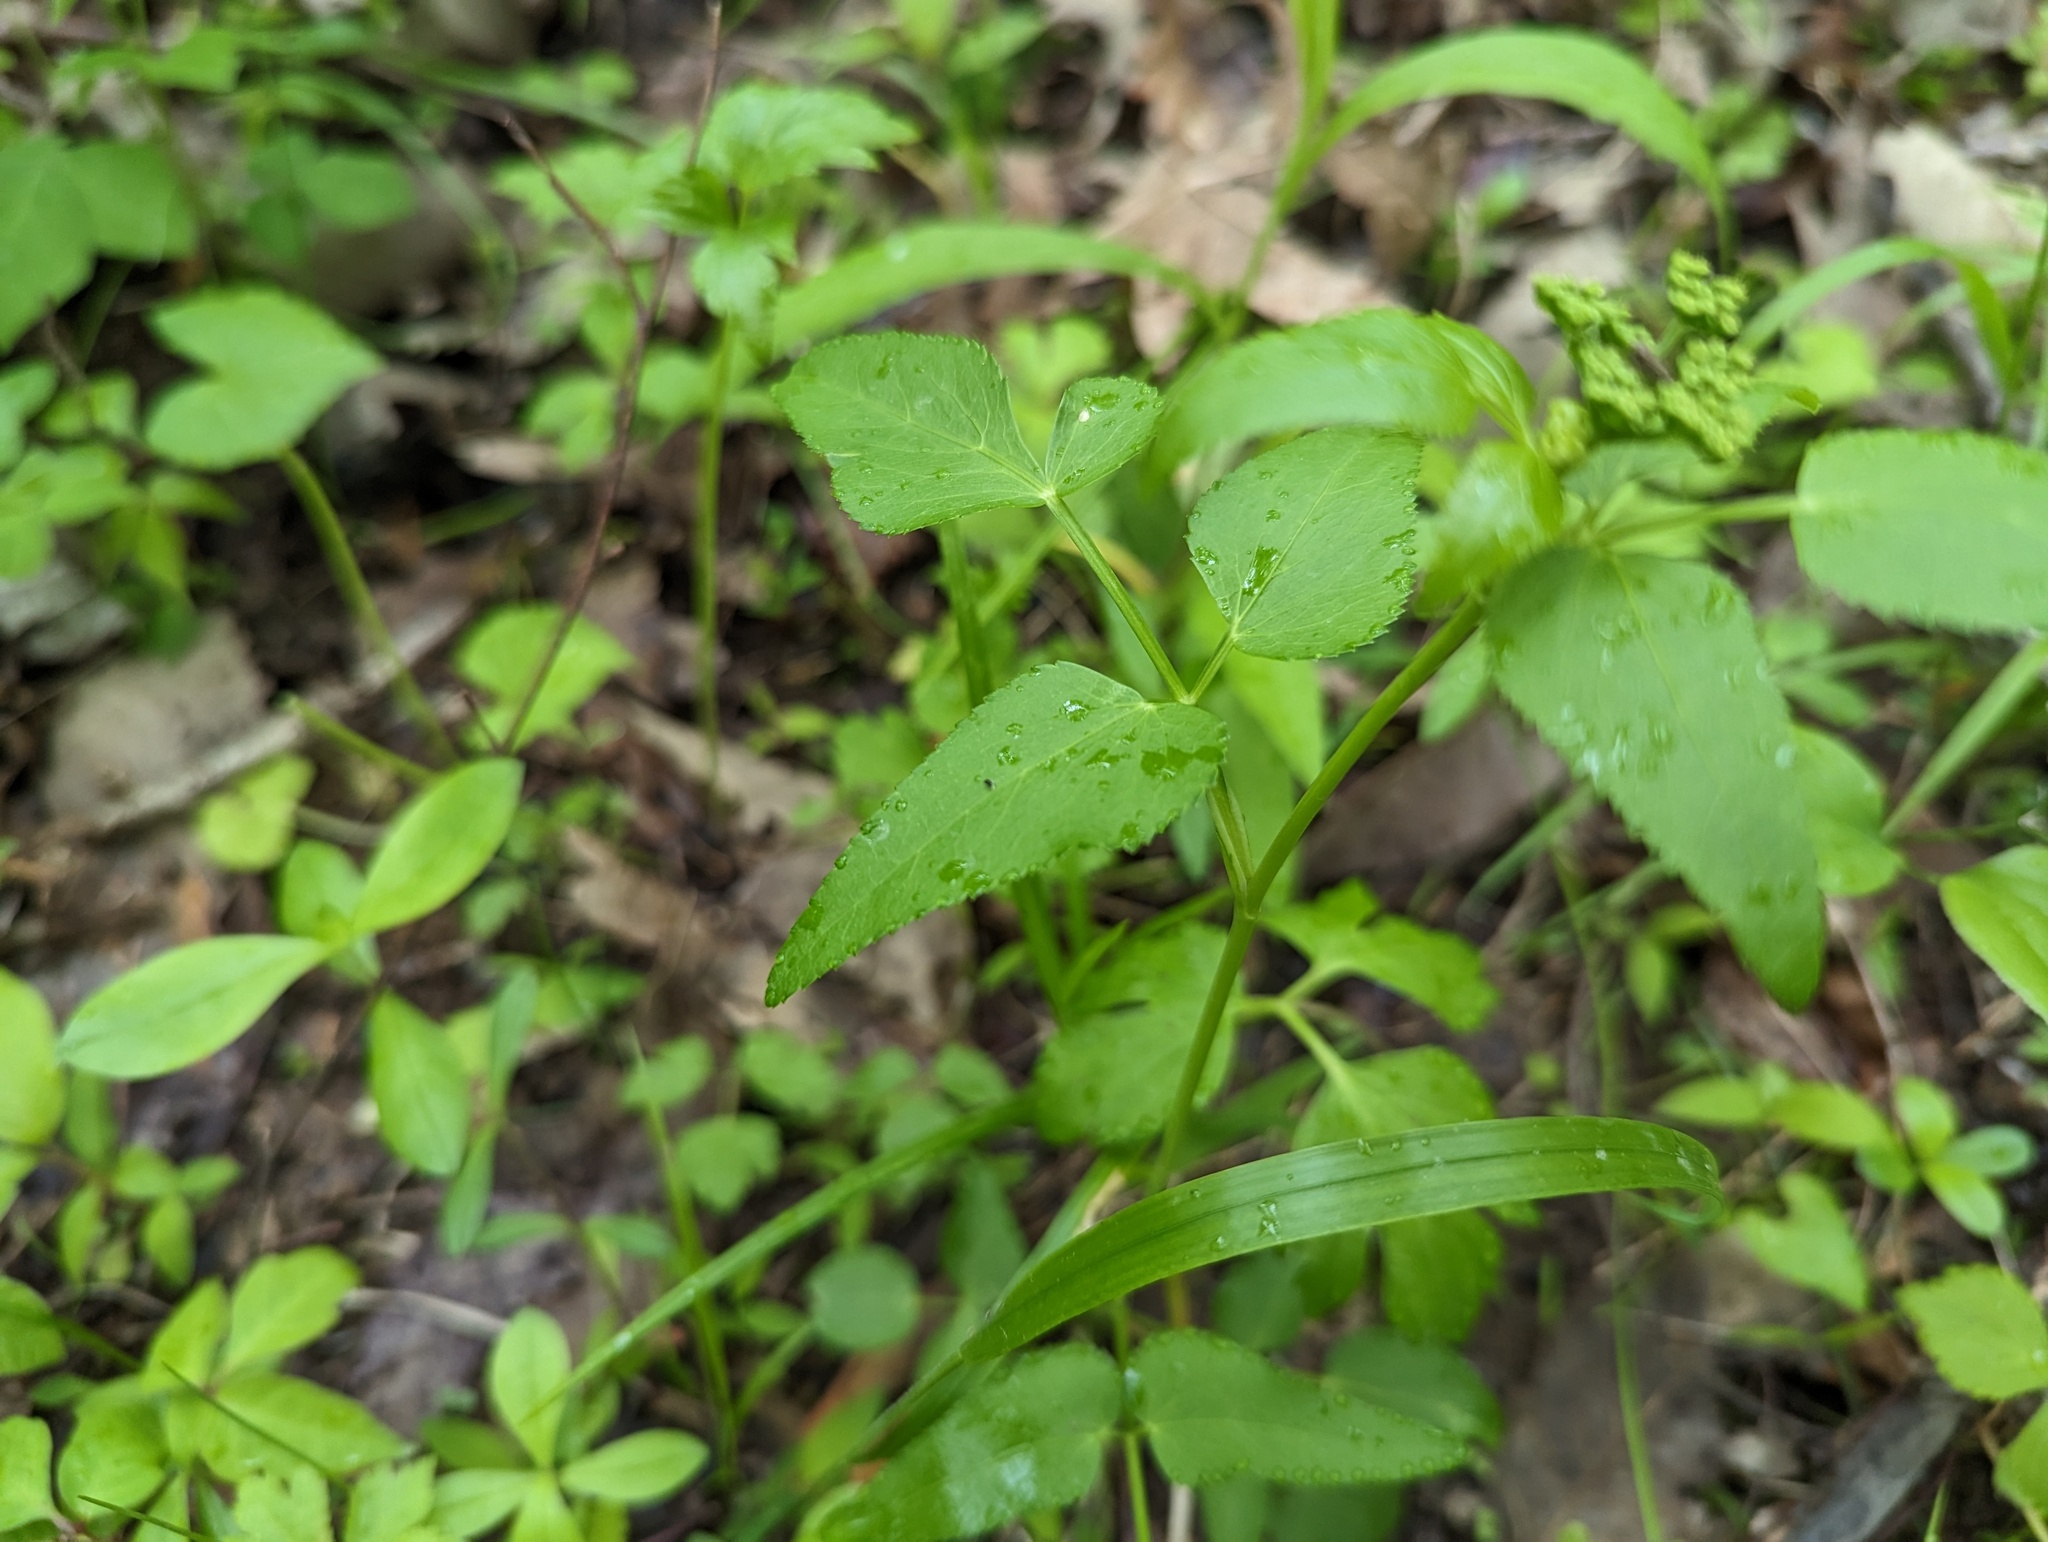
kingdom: Plantae
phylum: Tracheophyta
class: Magnoliopsida
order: Apiales
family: Apiaceae
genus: Thaspium
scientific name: Thaspium trifoliatum
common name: Purple meadow-parsnip
